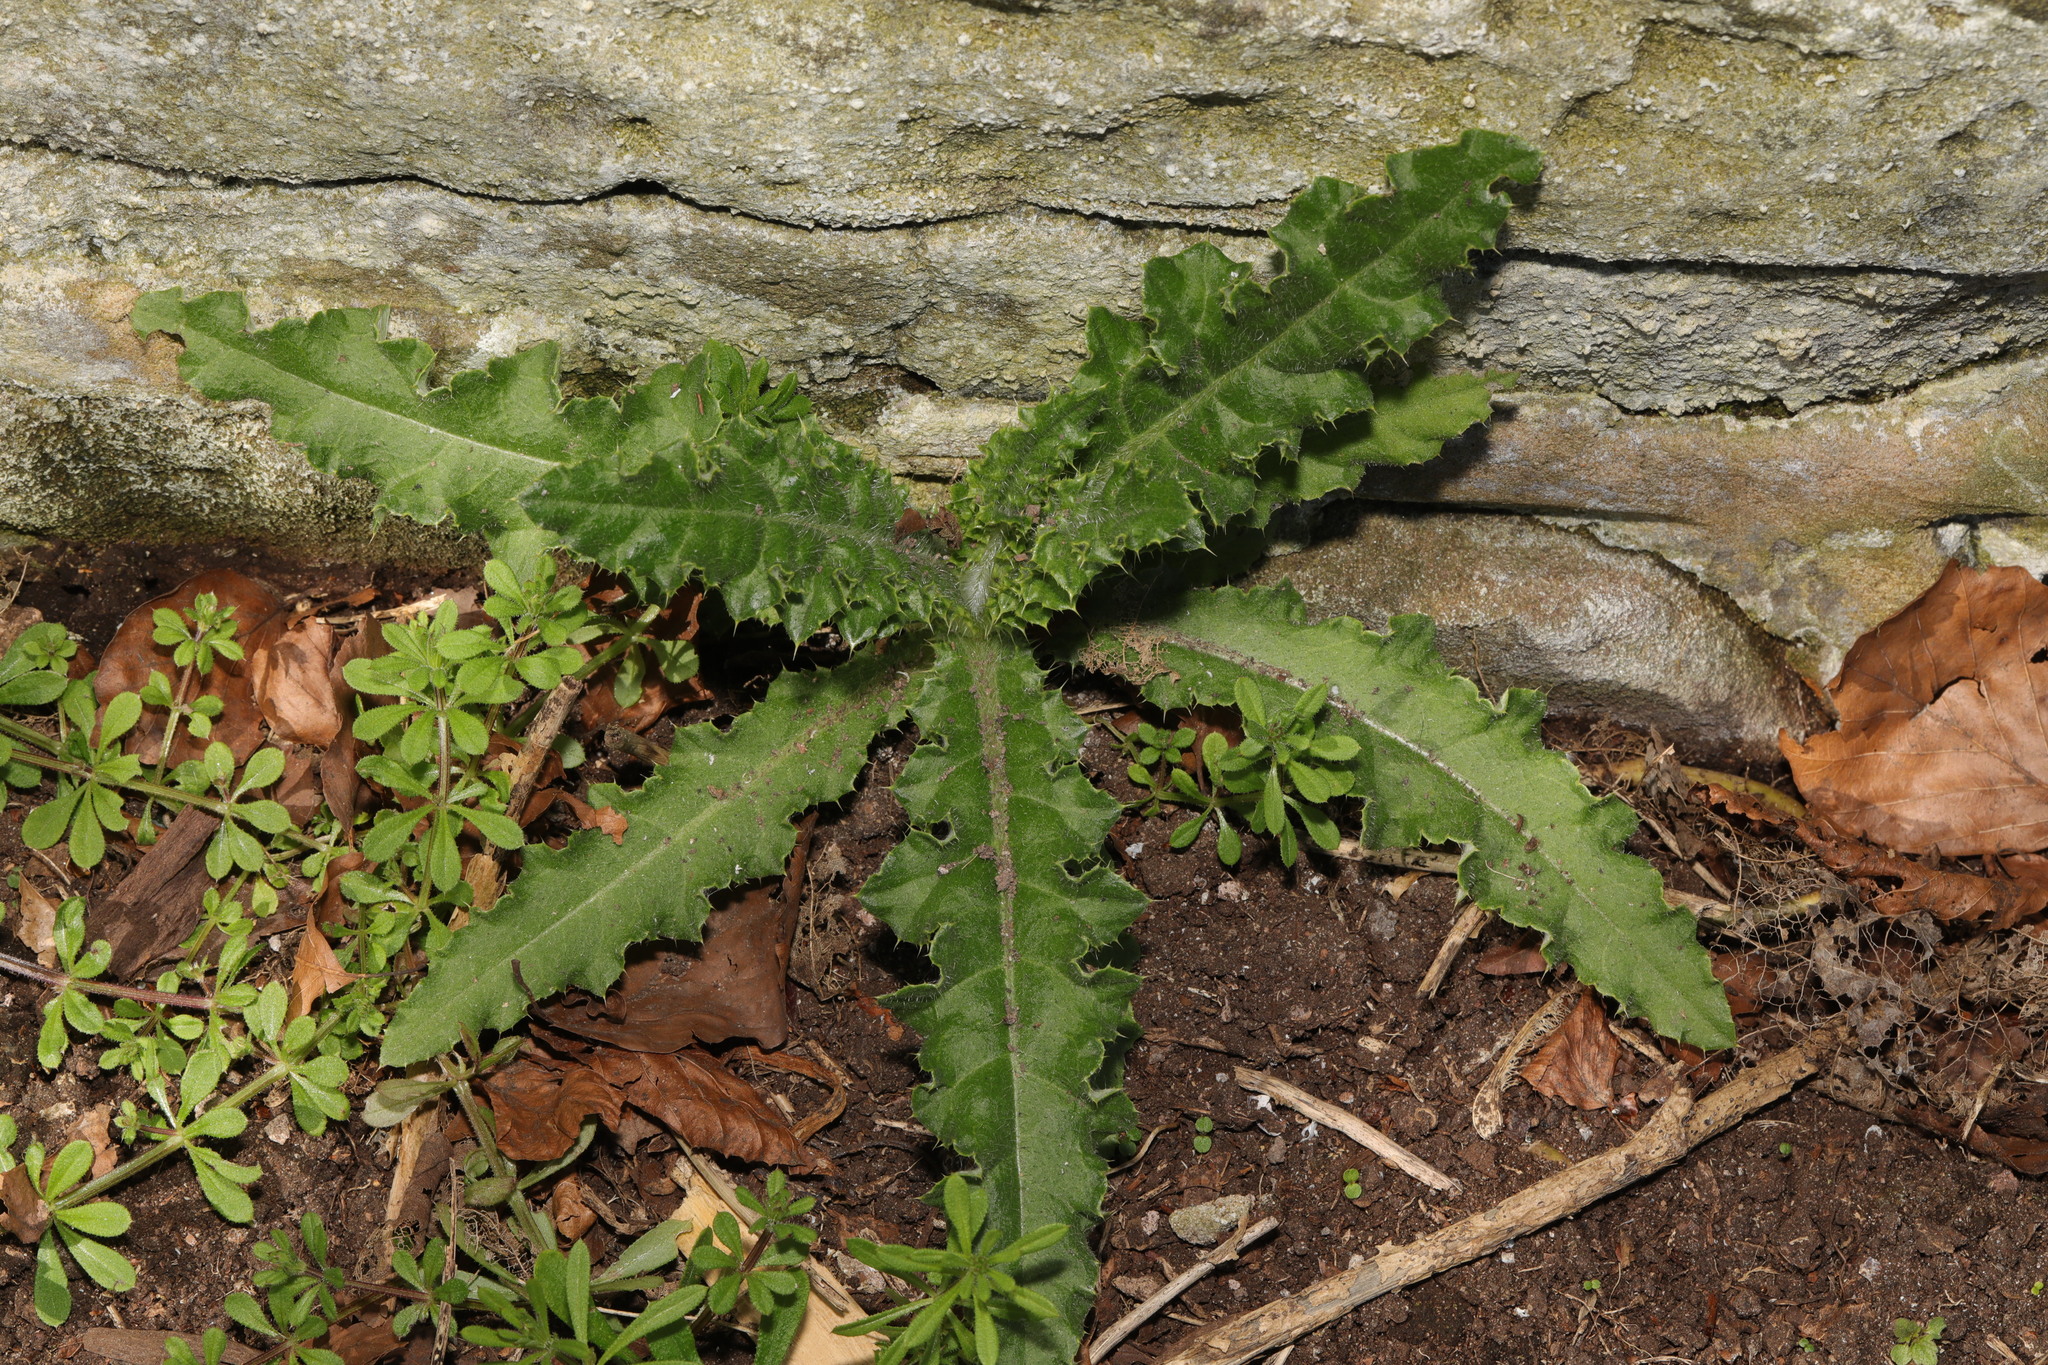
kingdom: Plantae
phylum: Tracheophyta
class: Magnoliopsida
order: Asterales
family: Asteraceae
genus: Cirsium
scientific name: Cirsium arvense
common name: Creeping thistle
